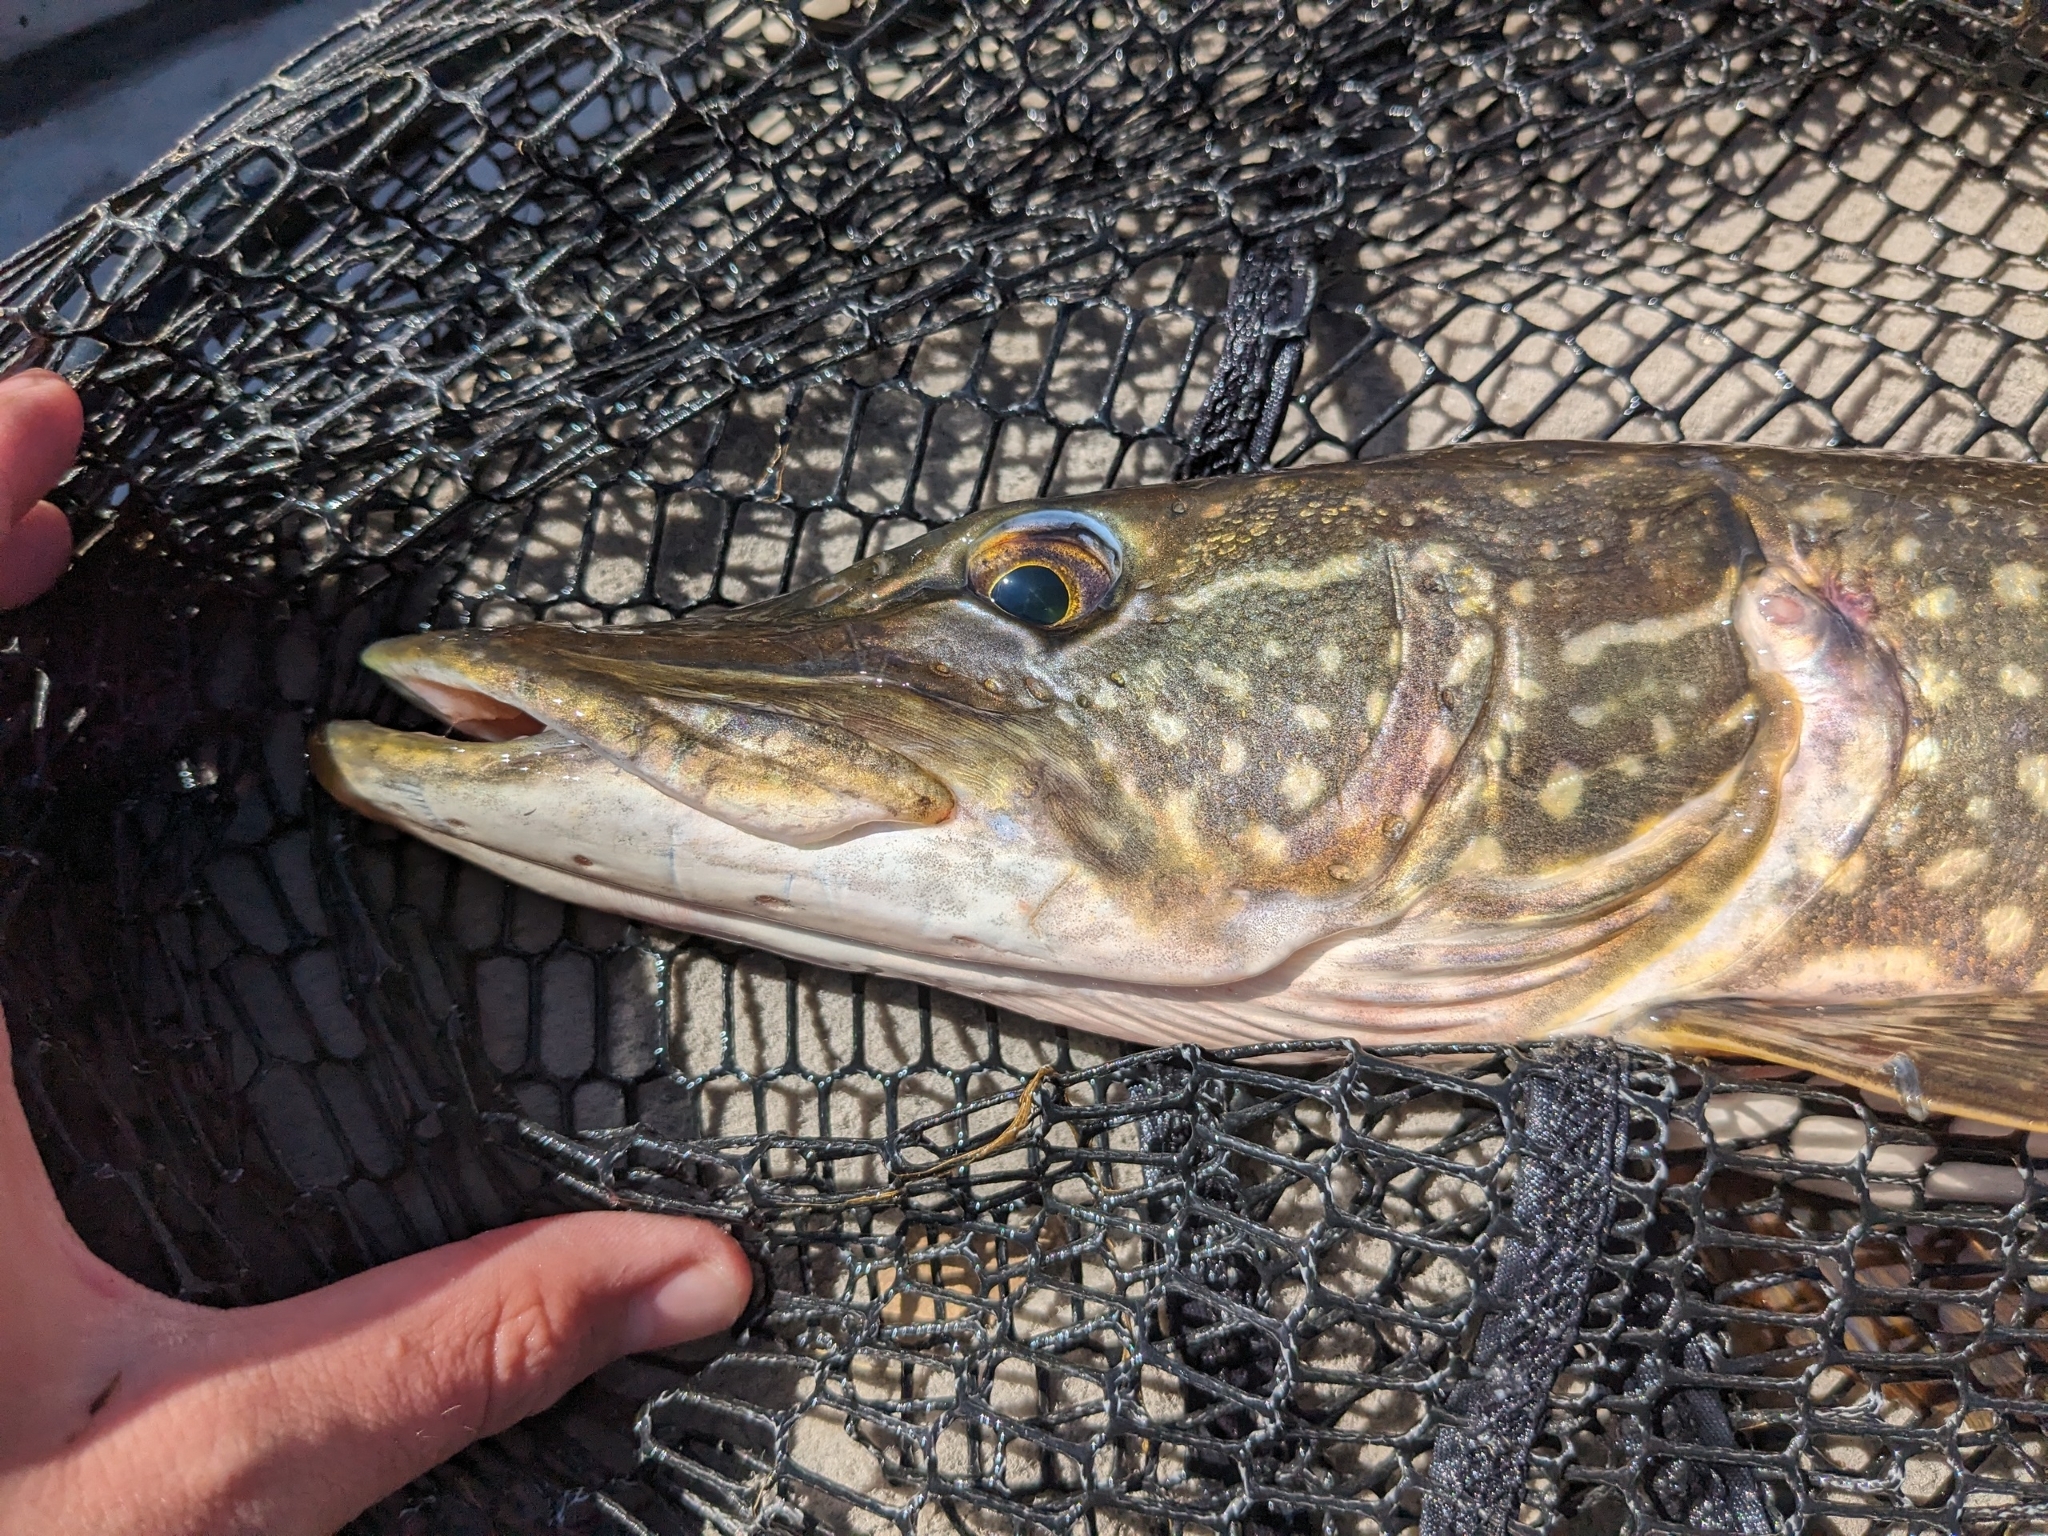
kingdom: Animalia
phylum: Chordata
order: Esociformes
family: Esocidae
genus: Esox
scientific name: Esox lucius
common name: Northern pike
